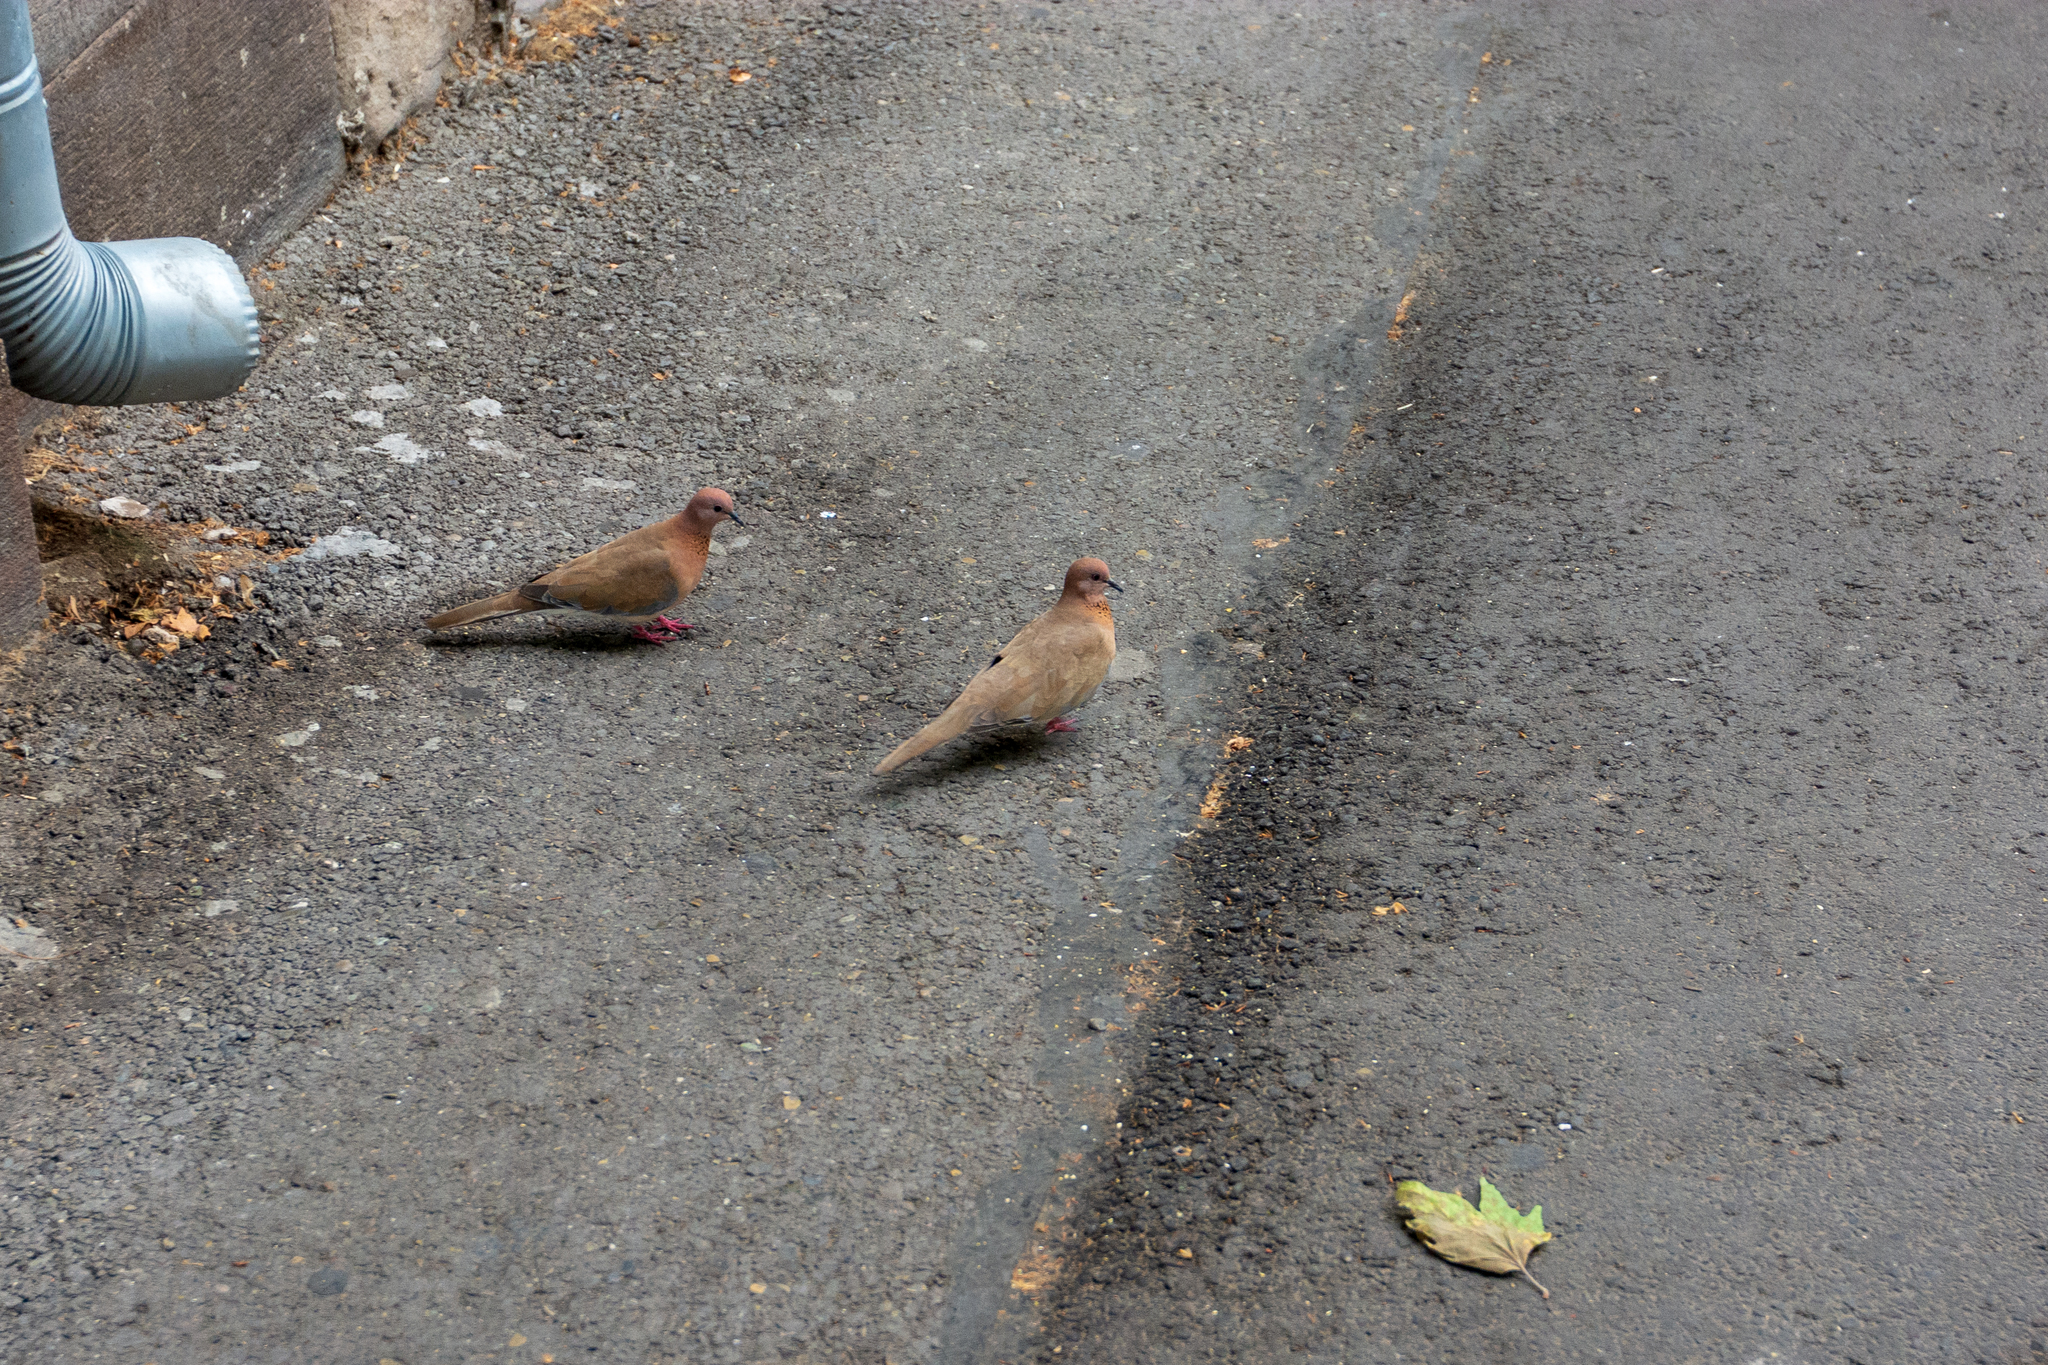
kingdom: Animalia
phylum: Chordata
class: Aves
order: Columbiformes
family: Columbidae
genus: Spilopelia
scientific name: Spilopelia senegalensis
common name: Laughing dove
